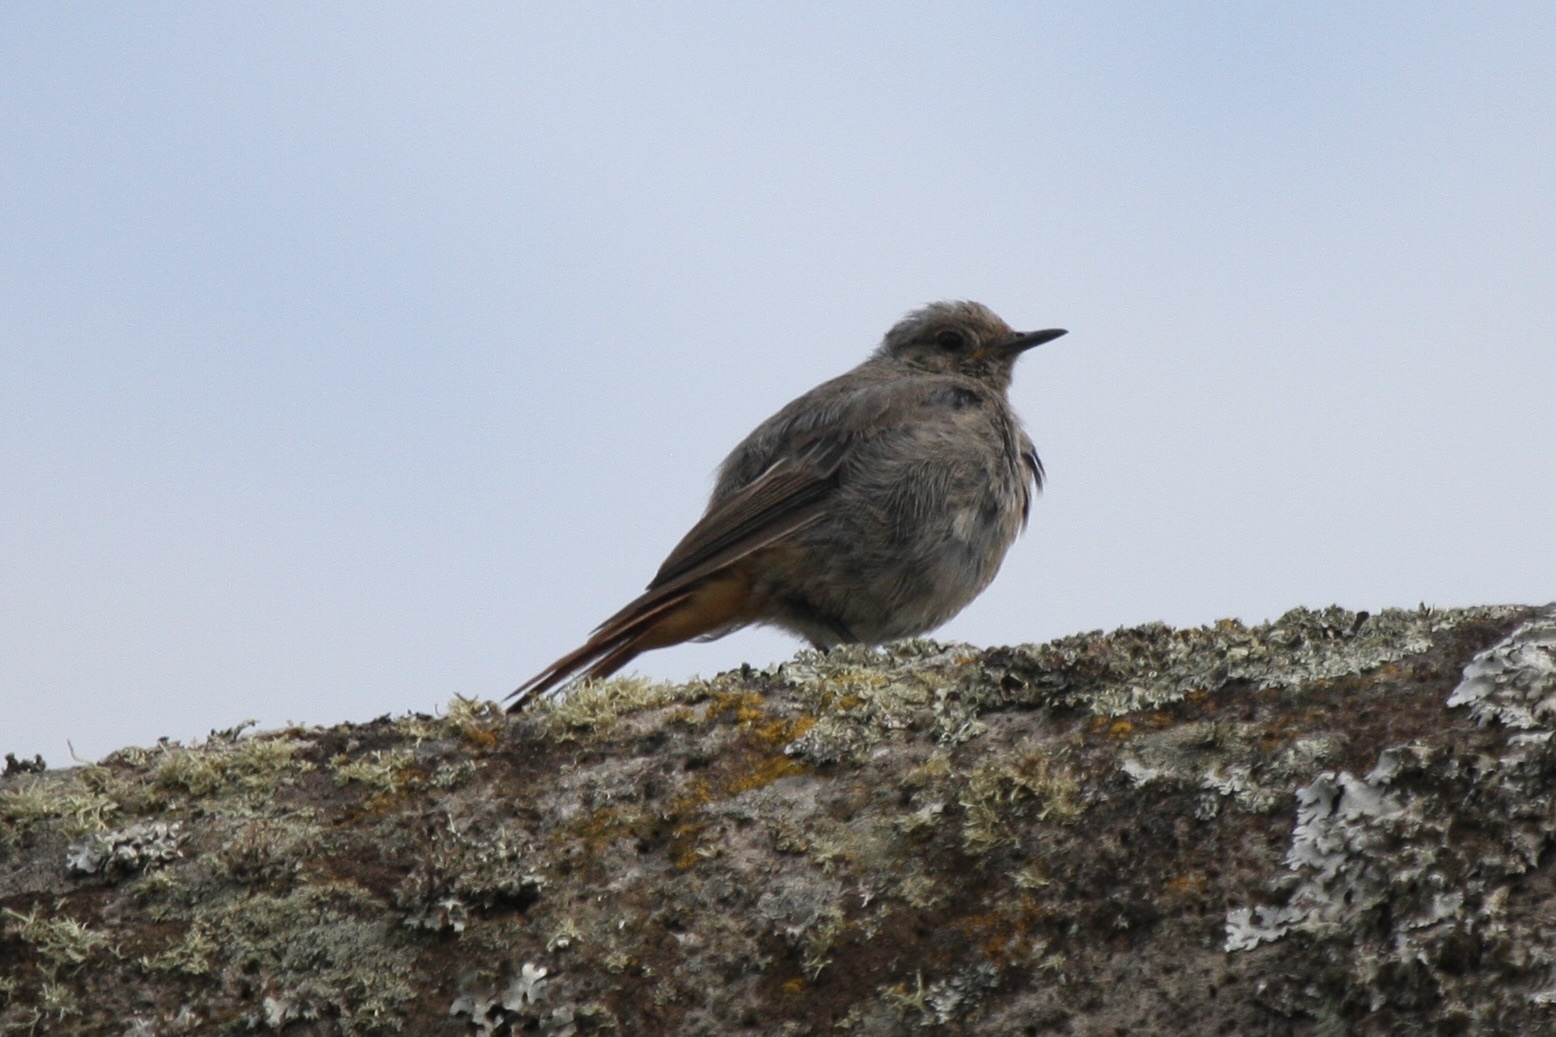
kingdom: Animalia
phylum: Chordata
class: Aves
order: Passeriformes
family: Muscicapidae
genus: Phoenicurus
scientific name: Phoenicurus ochruros
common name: Black redstart
